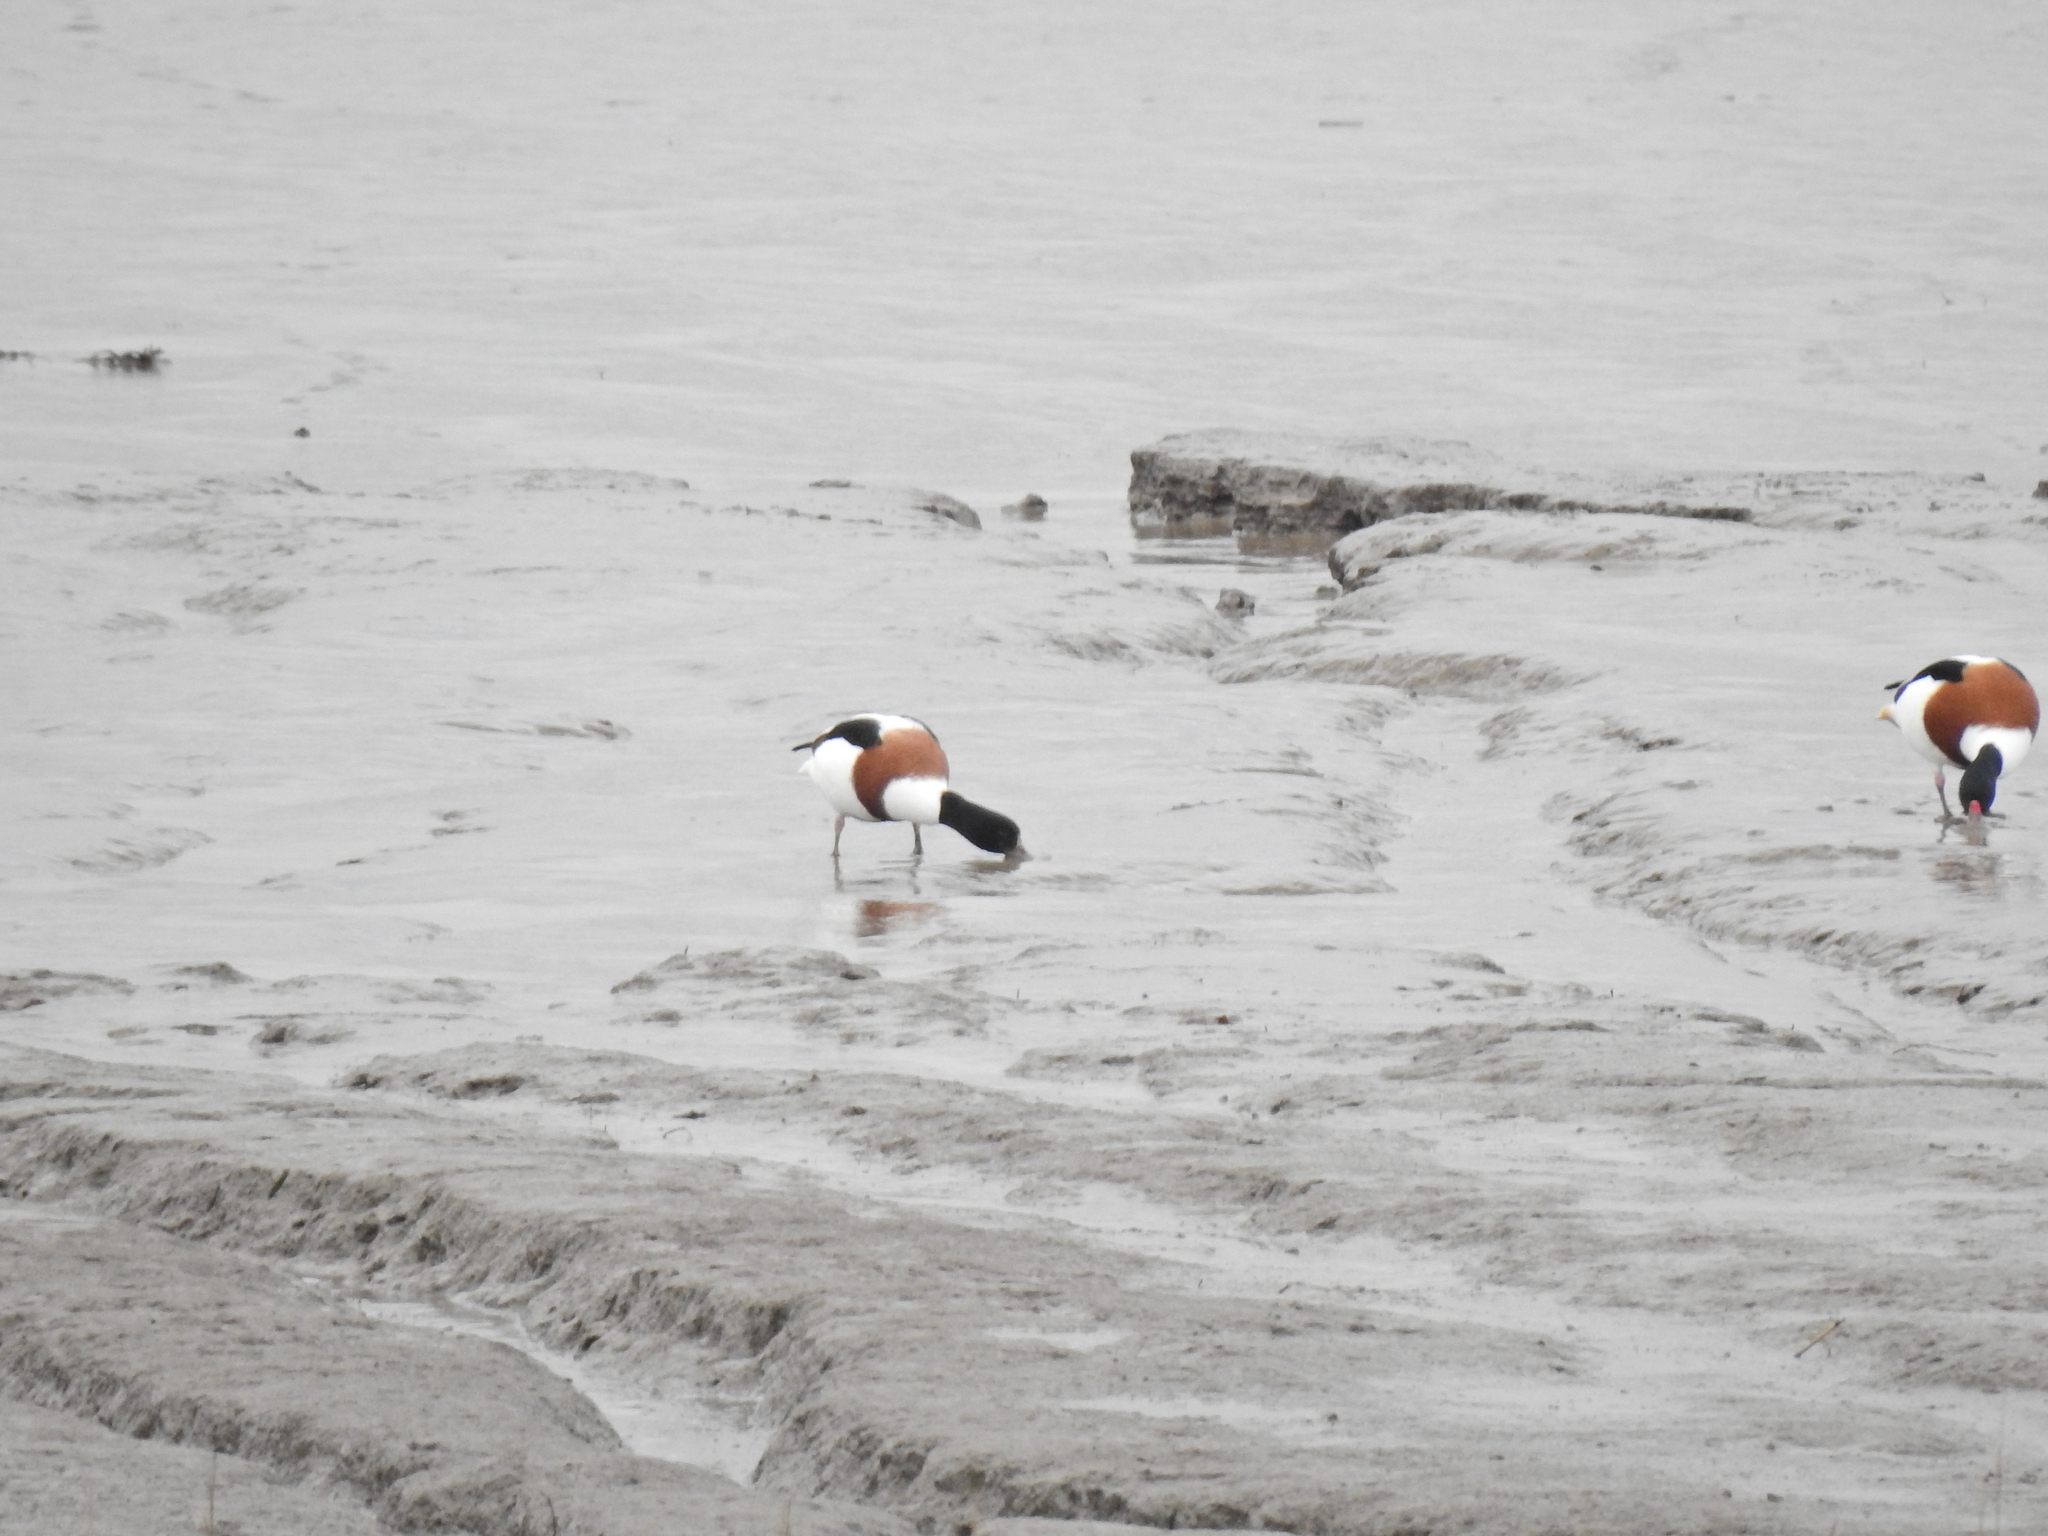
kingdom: Animalia
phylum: Chordata
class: Aves
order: Anseriformes
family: Anatidae
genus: Tadorna
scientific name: Tadorna tadorna
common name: Common shelduck
